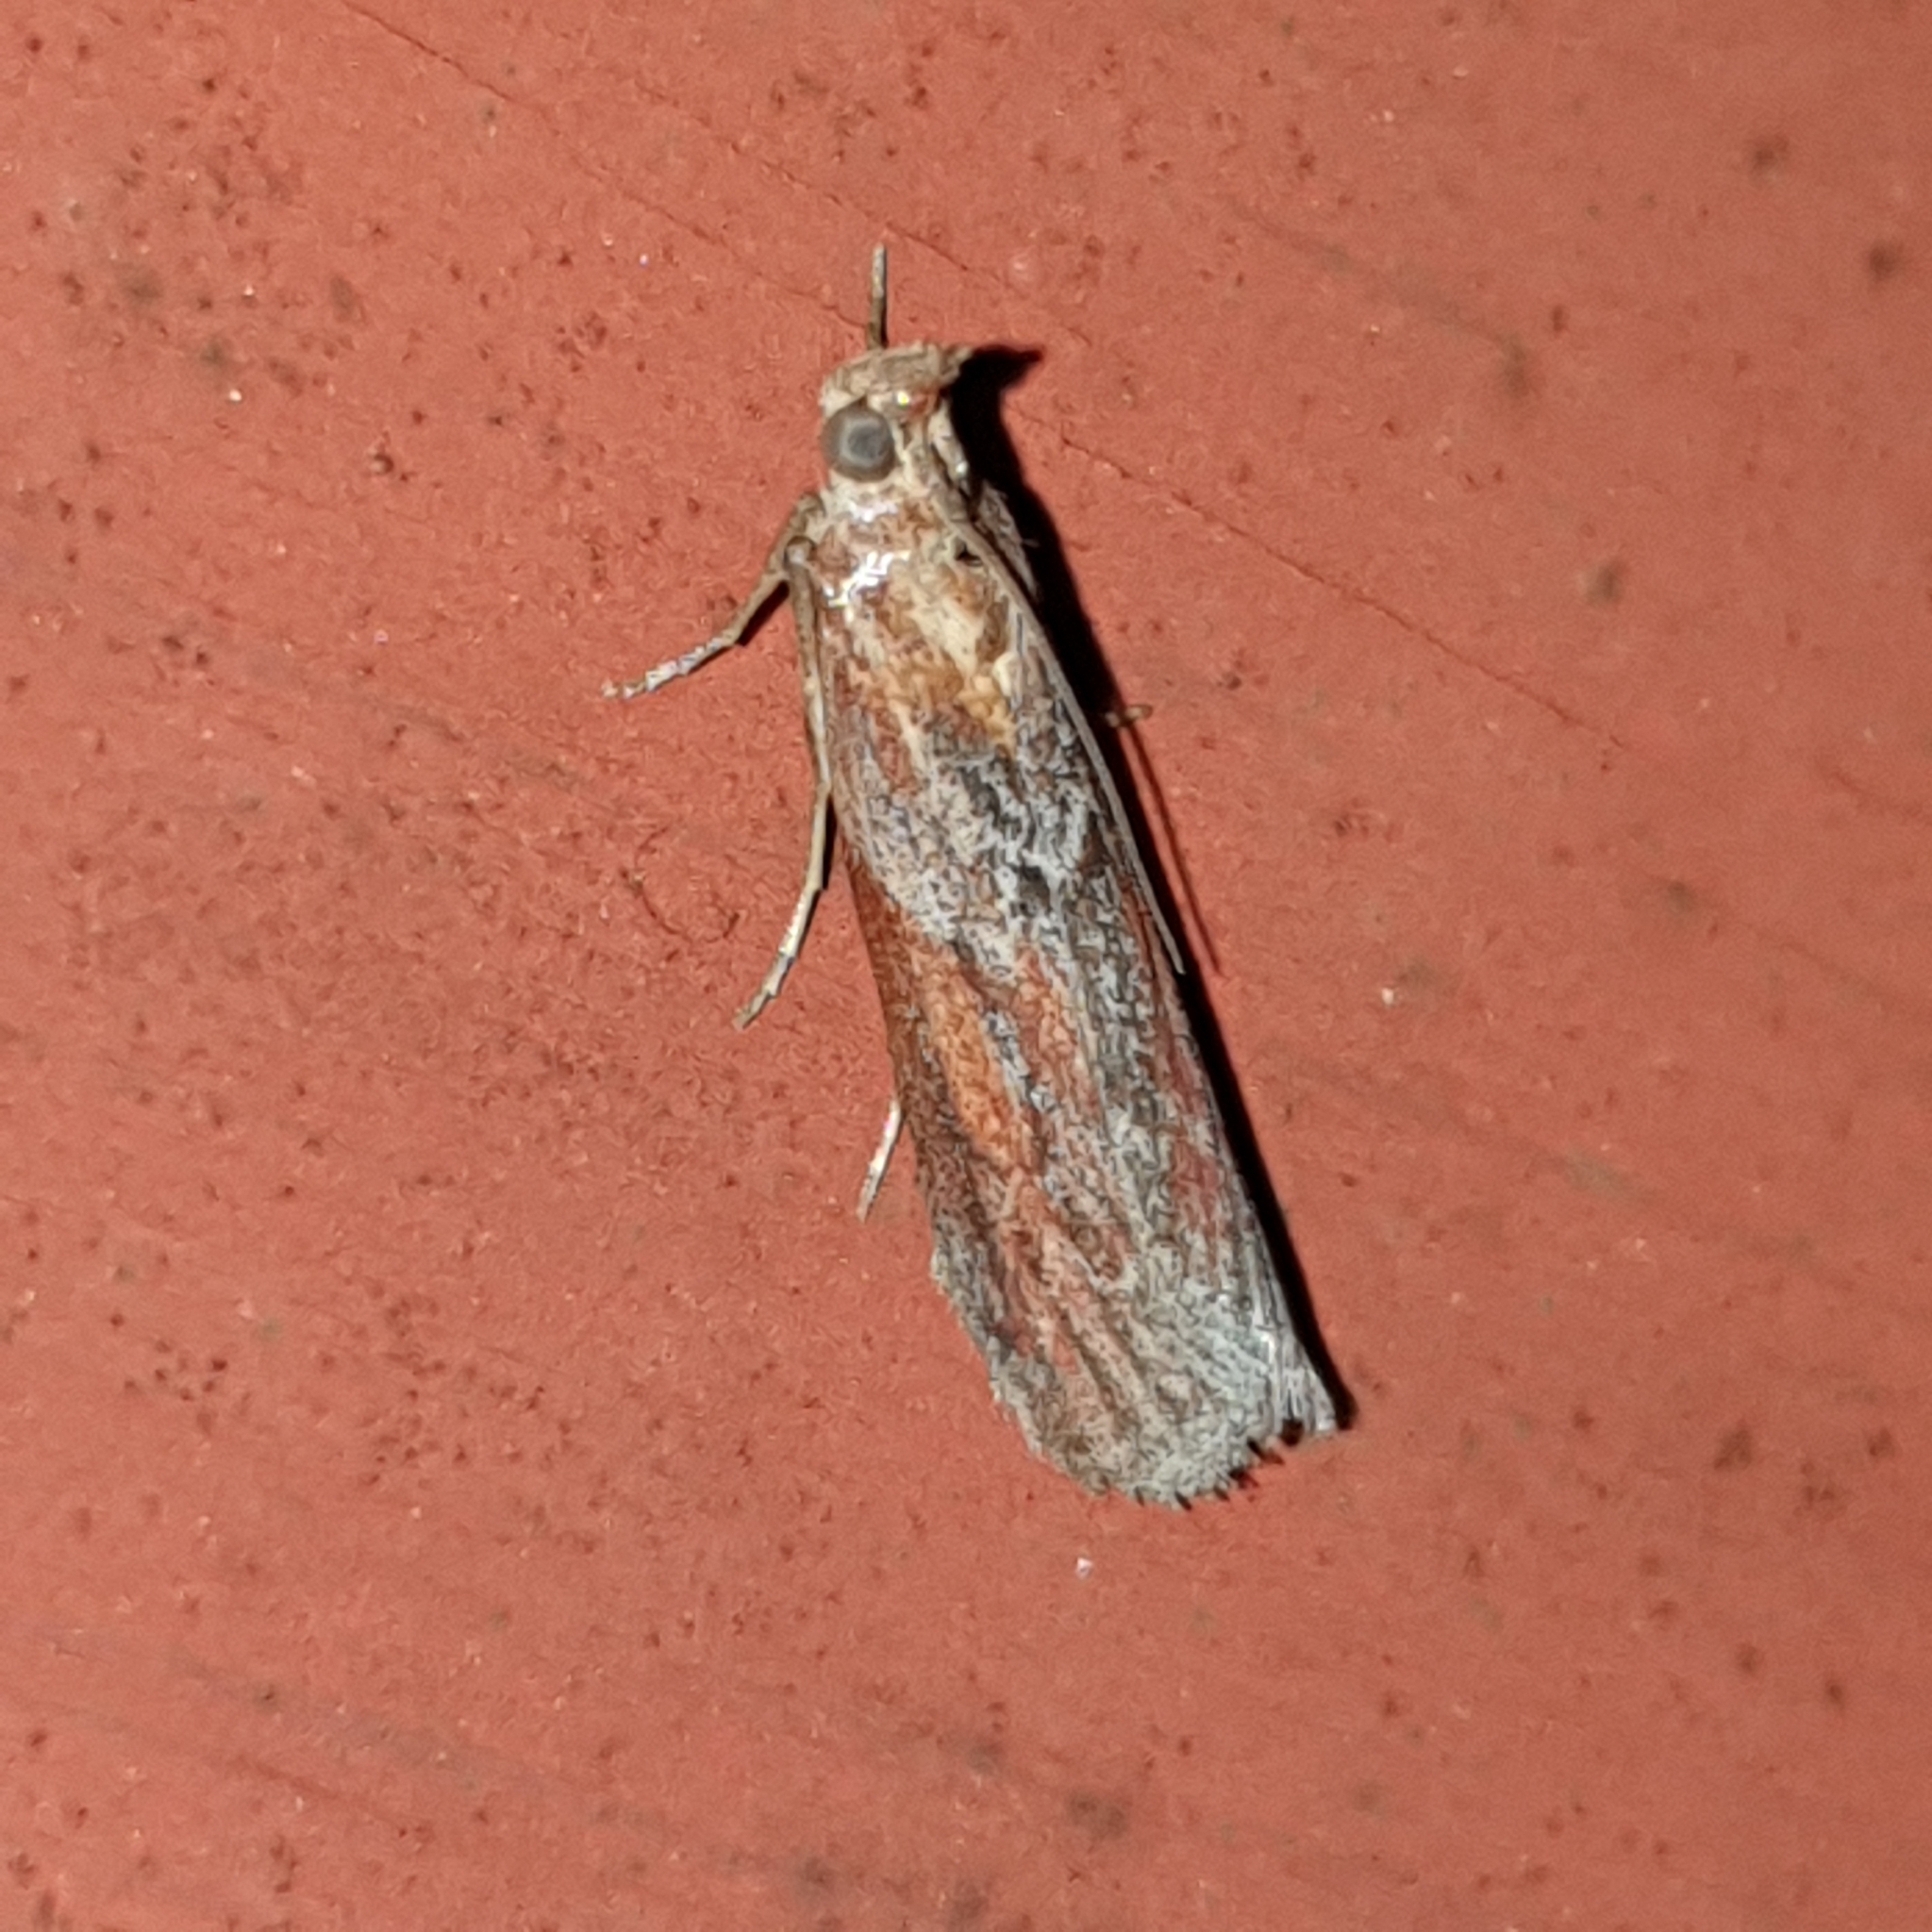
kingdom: Animalia
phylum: Arthropoda
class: Insecta
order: Lepidoptera
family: Pyralidae
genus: Selagia
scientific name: Selagia spadicella
